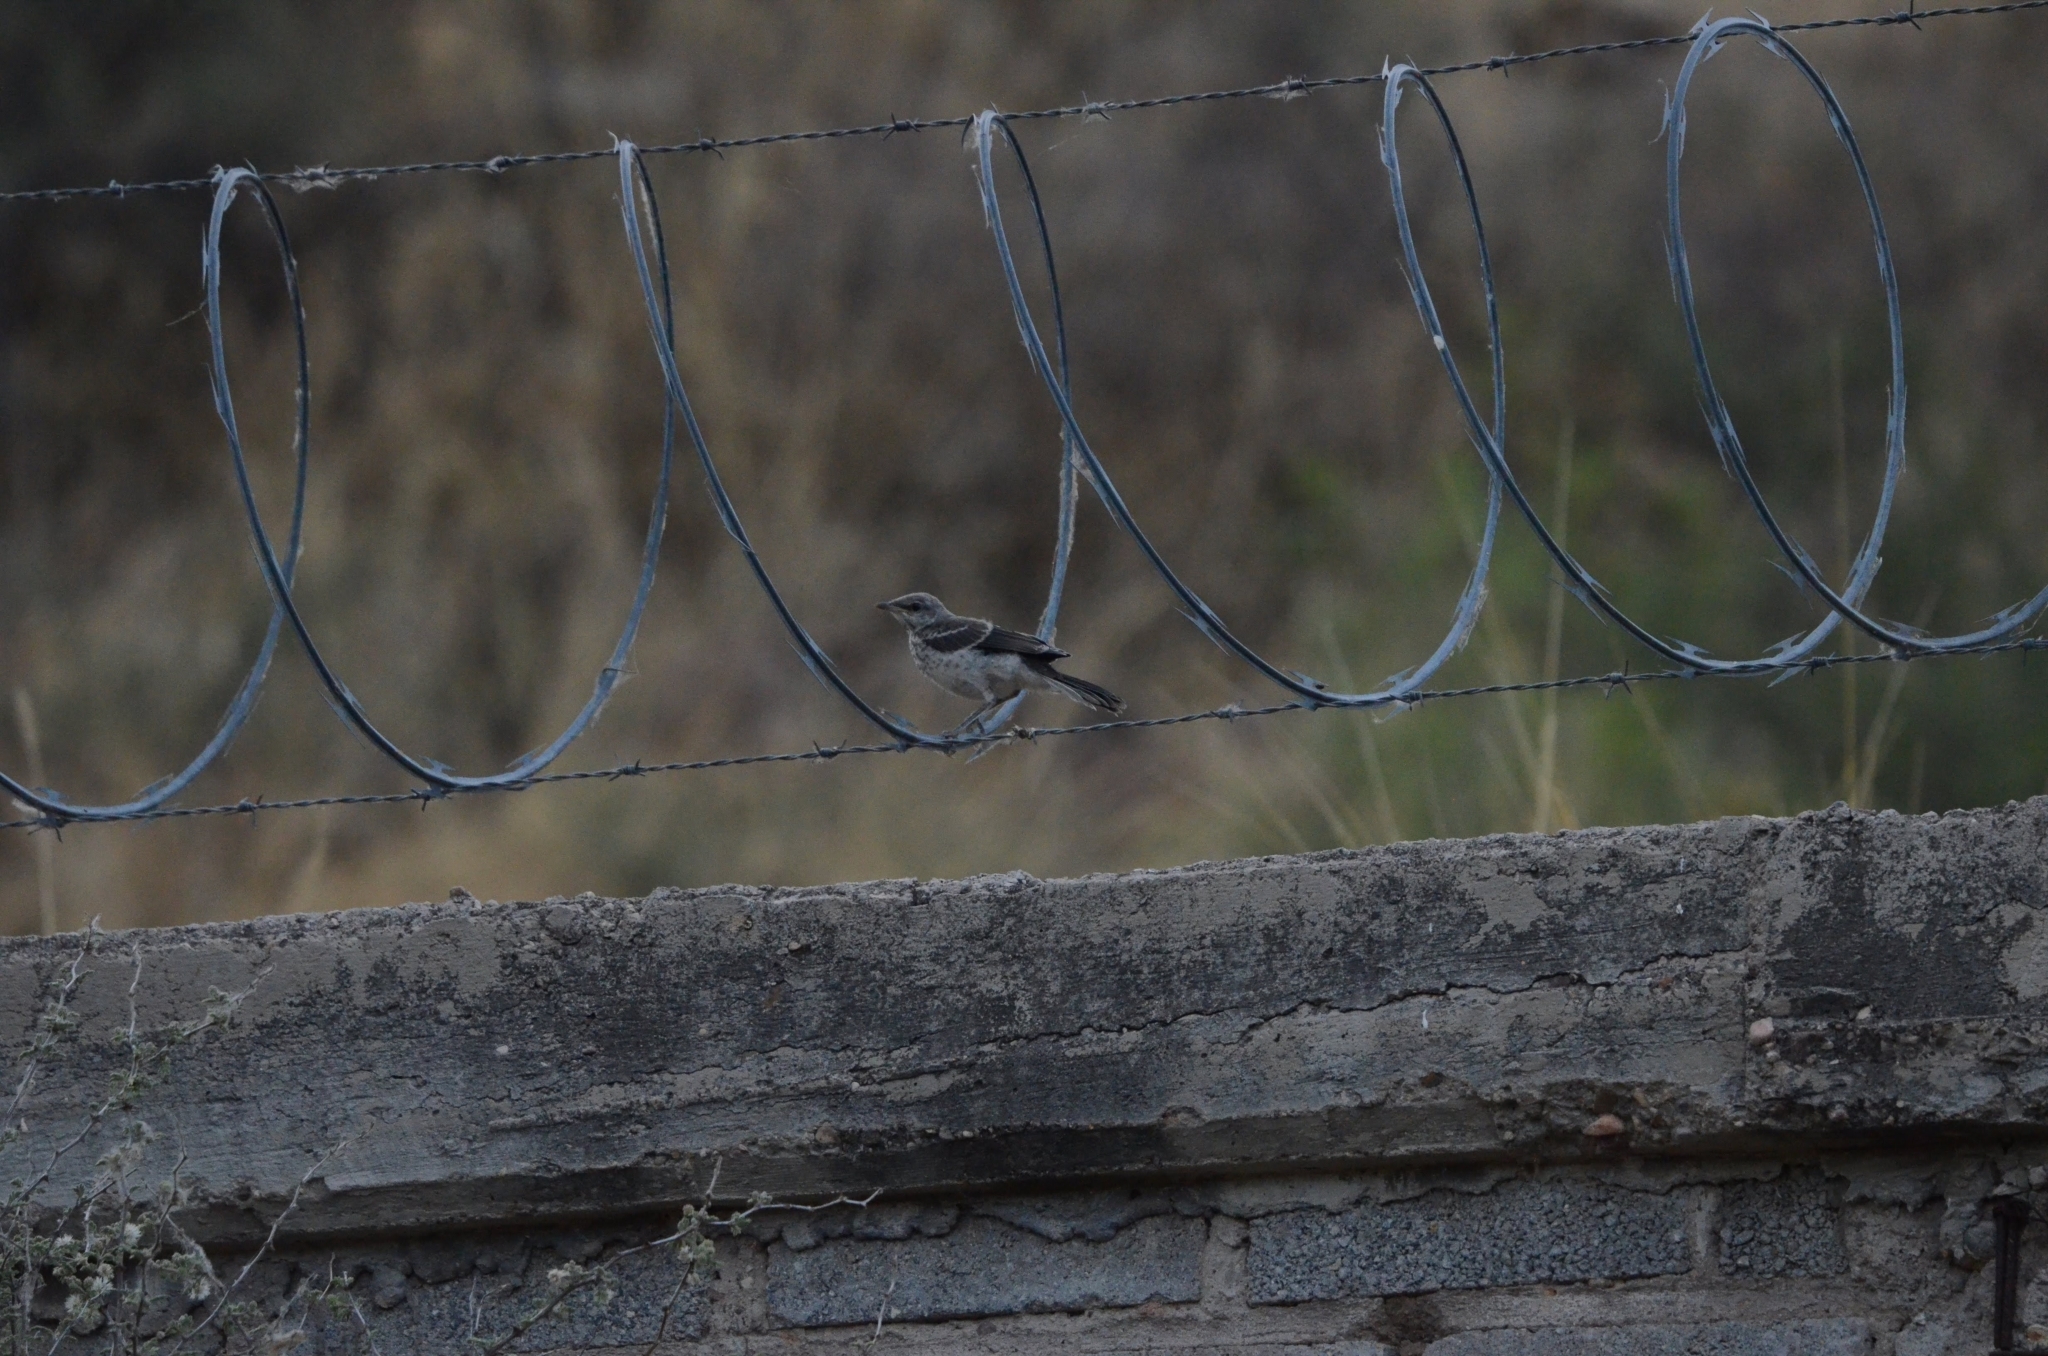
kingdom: Animalia
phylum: Chordata
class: Aves
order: Passeriformes
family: Mimidae
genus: Mimus
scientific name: Mimus polyglottos
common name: Northern mockingbird
